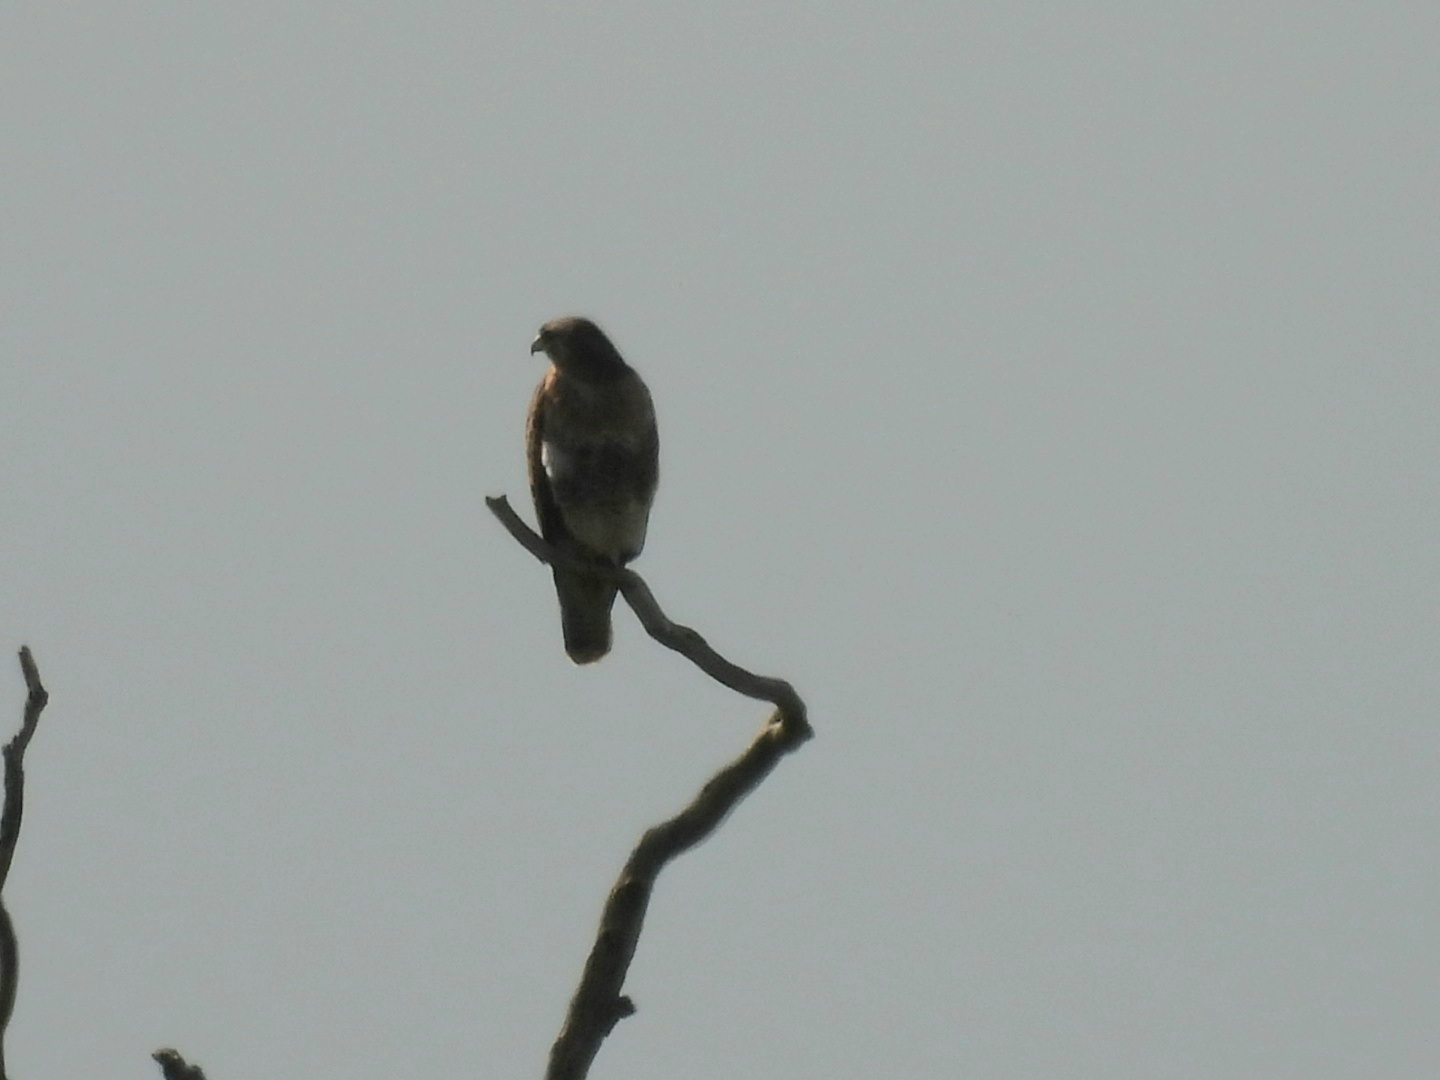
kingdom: Animalia
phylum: Chordata
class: Aves
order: Accipitriformes
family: Accipitridae
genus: Buteo
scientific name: Buteo buteo
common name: Common buzzard
